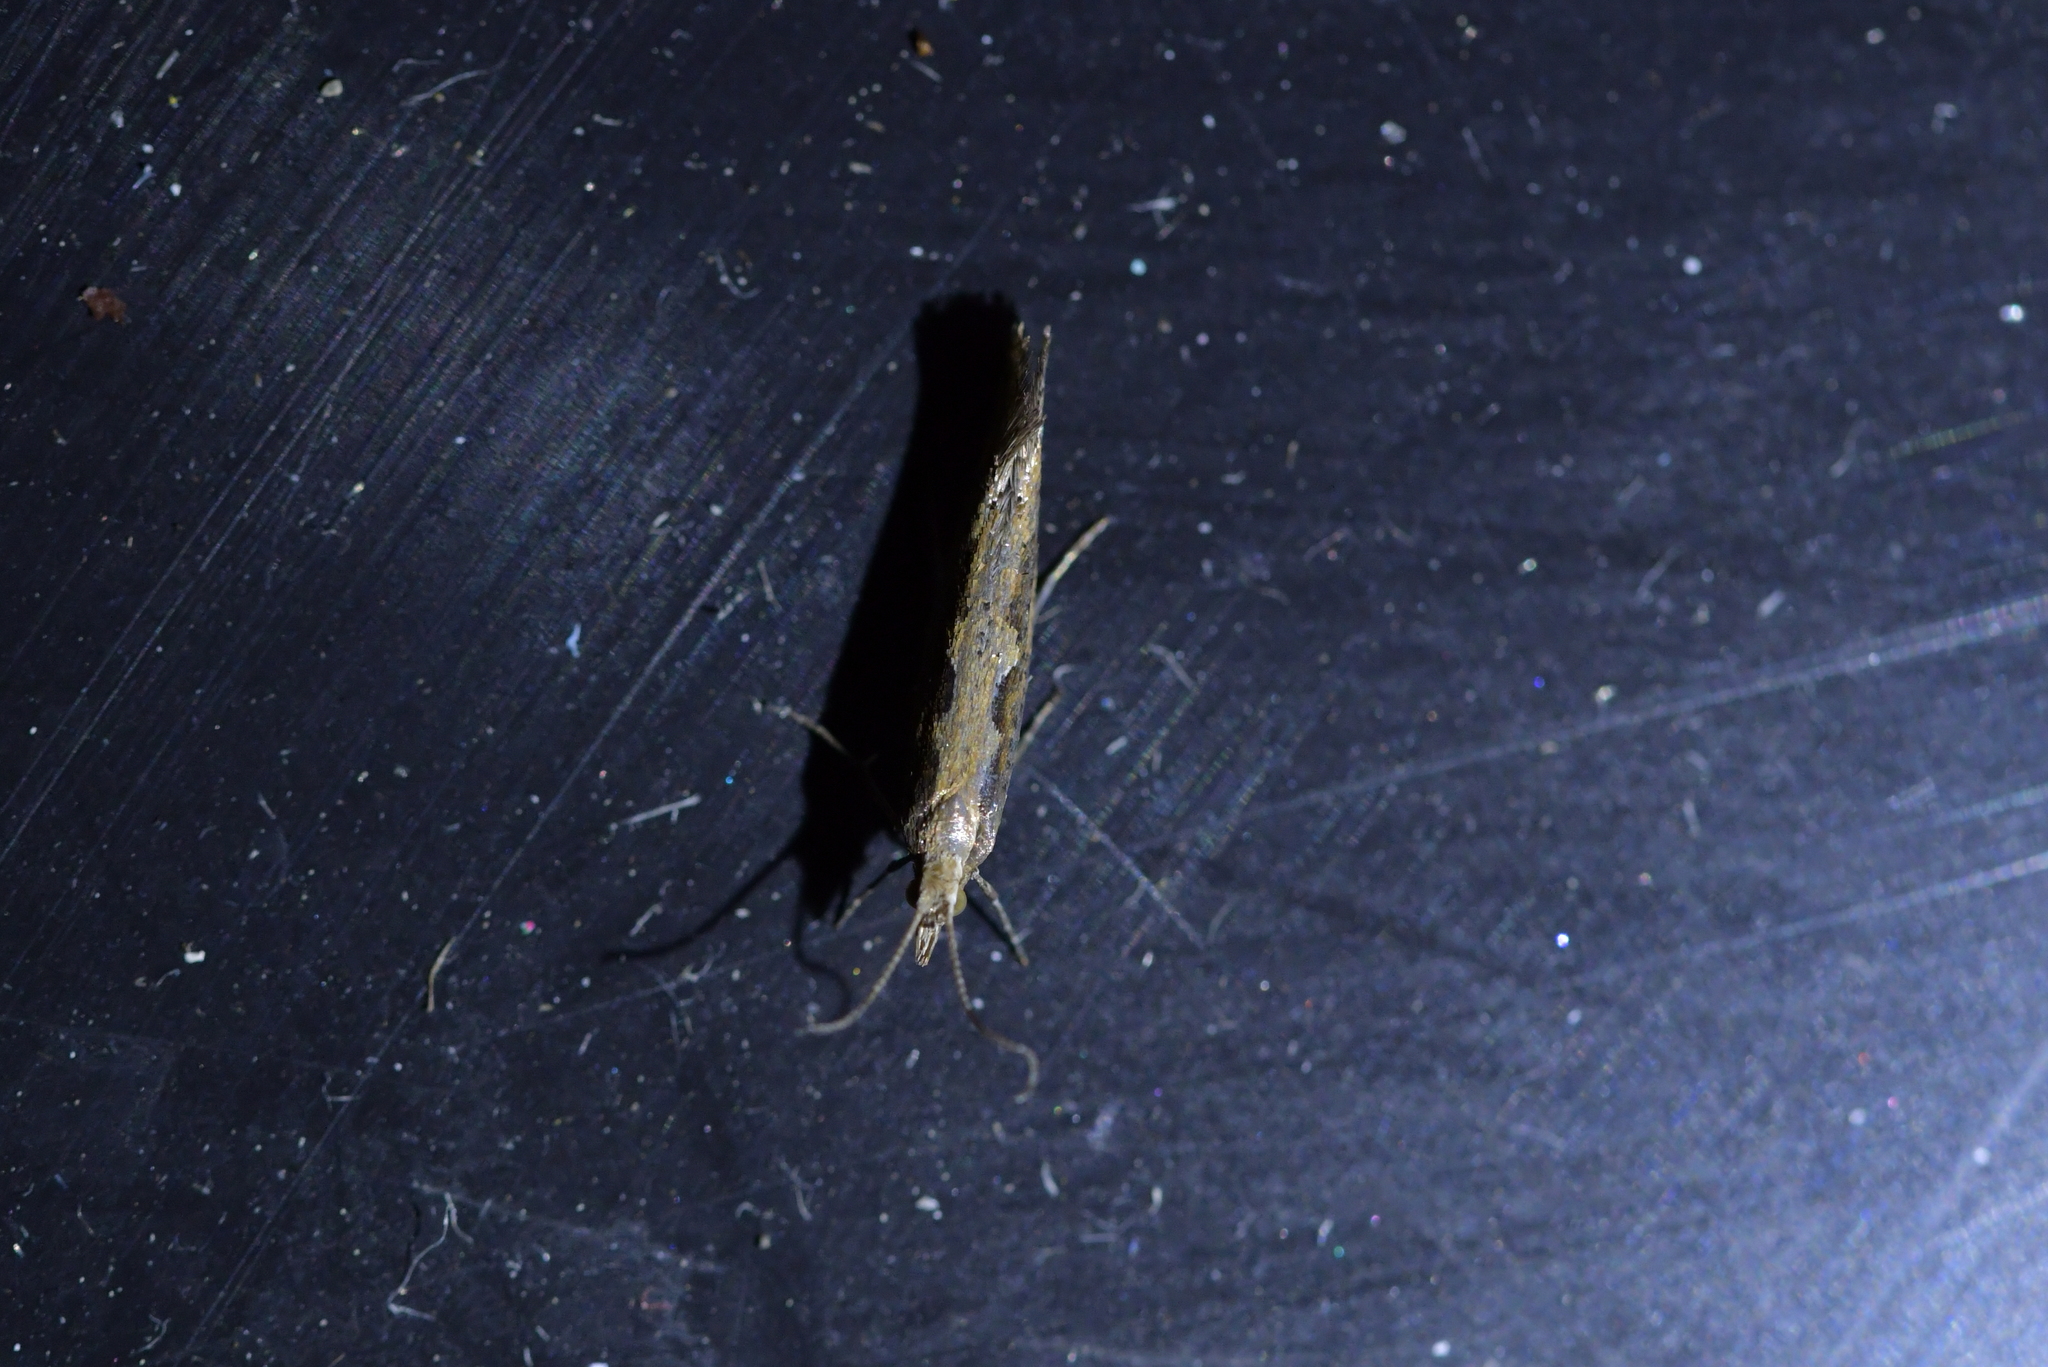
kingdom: Animalia
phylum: Arthropoda
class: Insecta
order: Lepidoptera
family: Plutellidae
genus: Plutella
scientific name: Plutella xylostella
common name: Diamond-back moth
